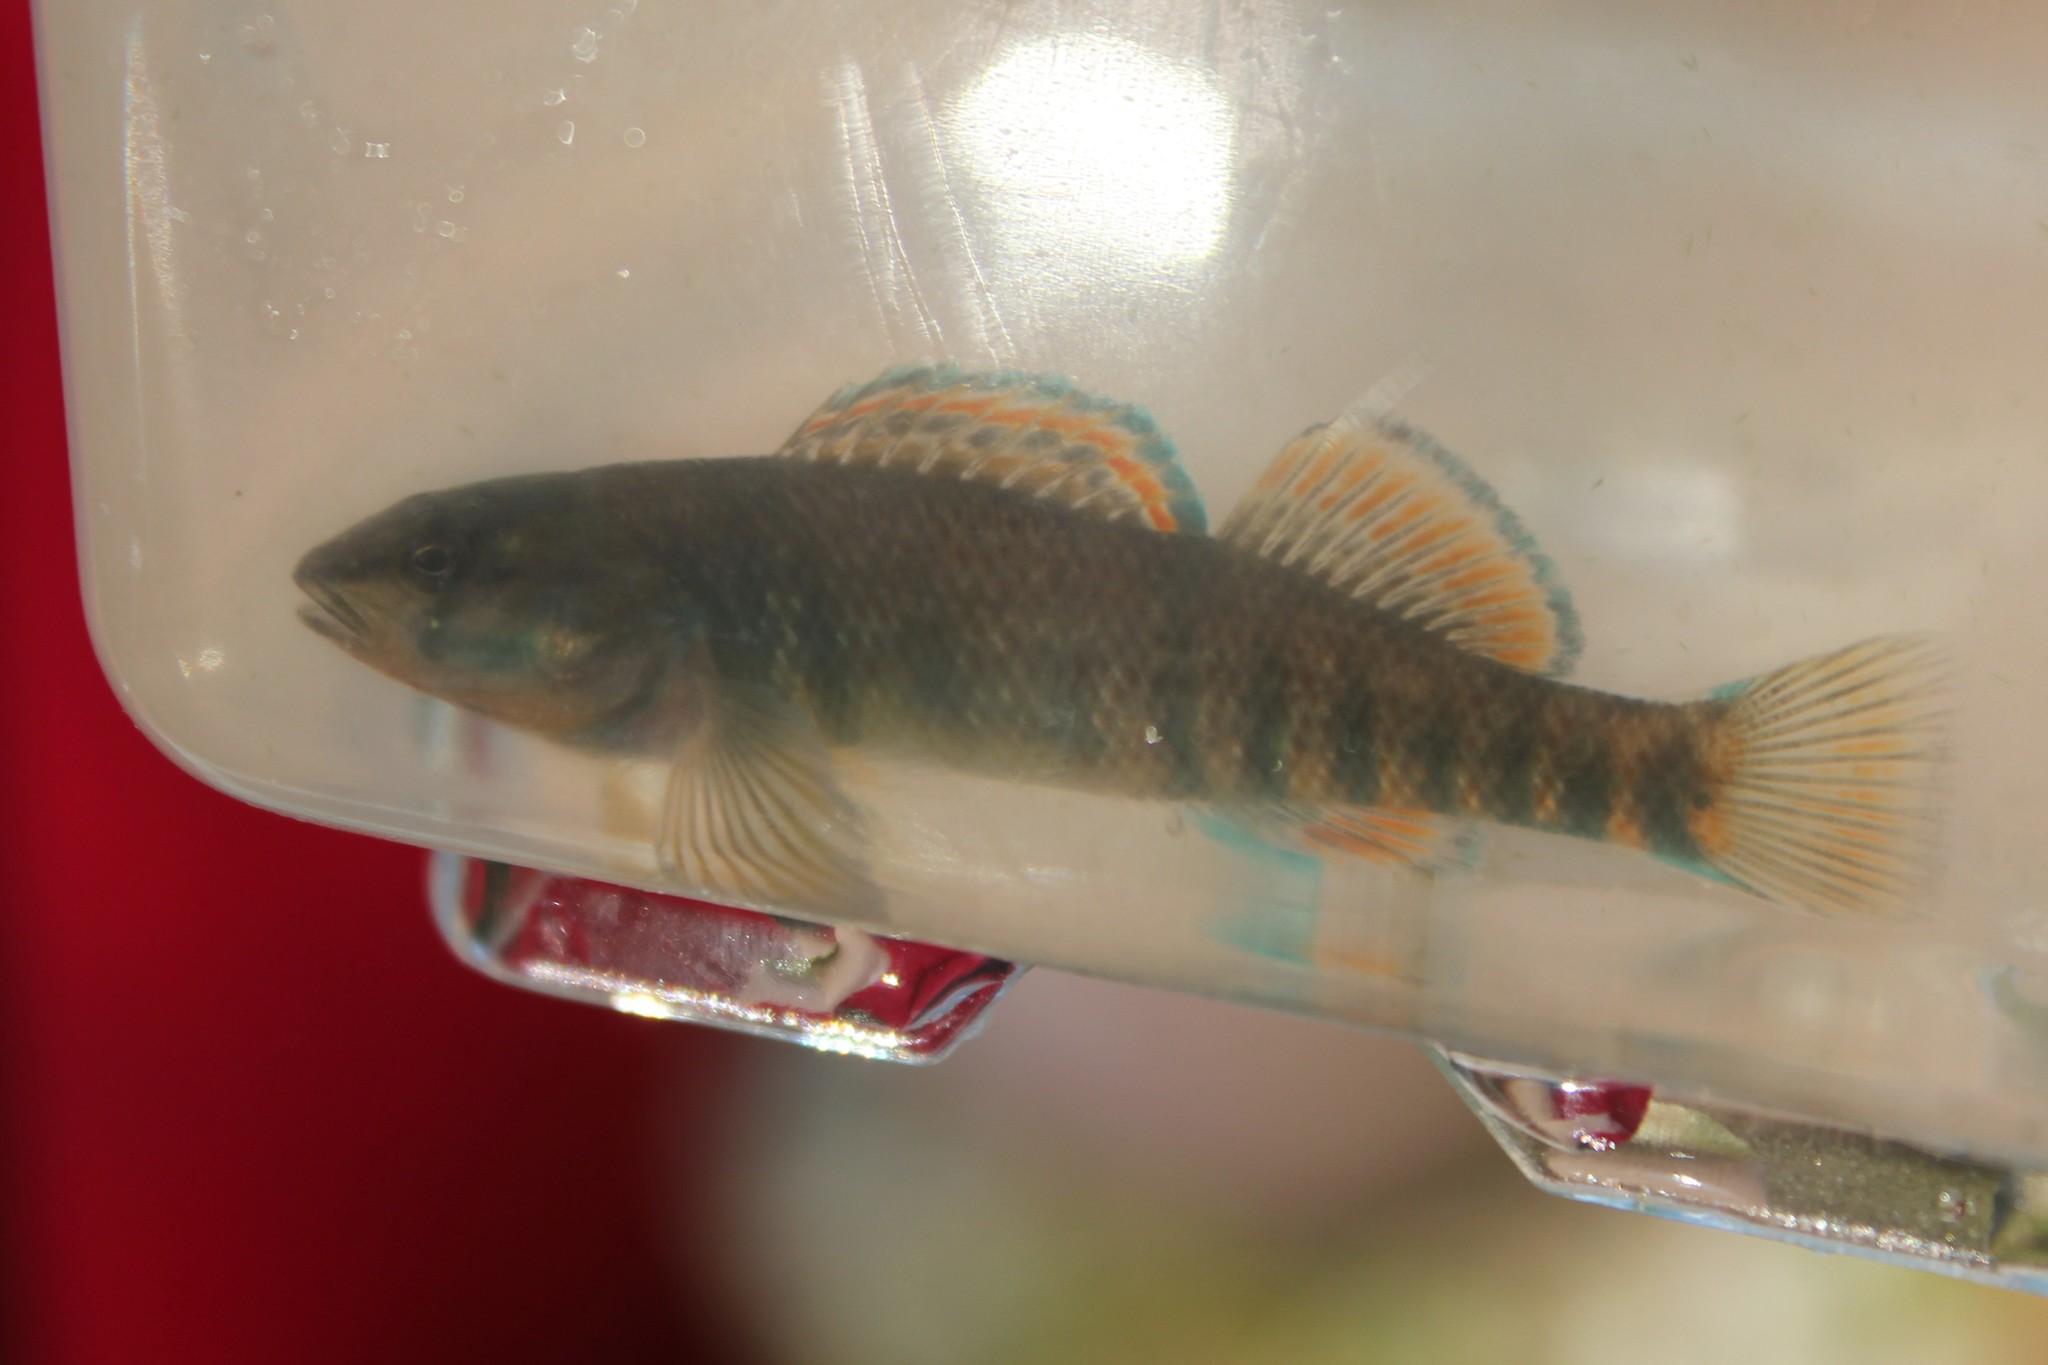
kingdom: Animalia
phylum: Chordata
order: Perciformes
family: Percidae
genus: Etheostoma
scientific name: Etheostoma caeruleum
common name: Rainbow darter
